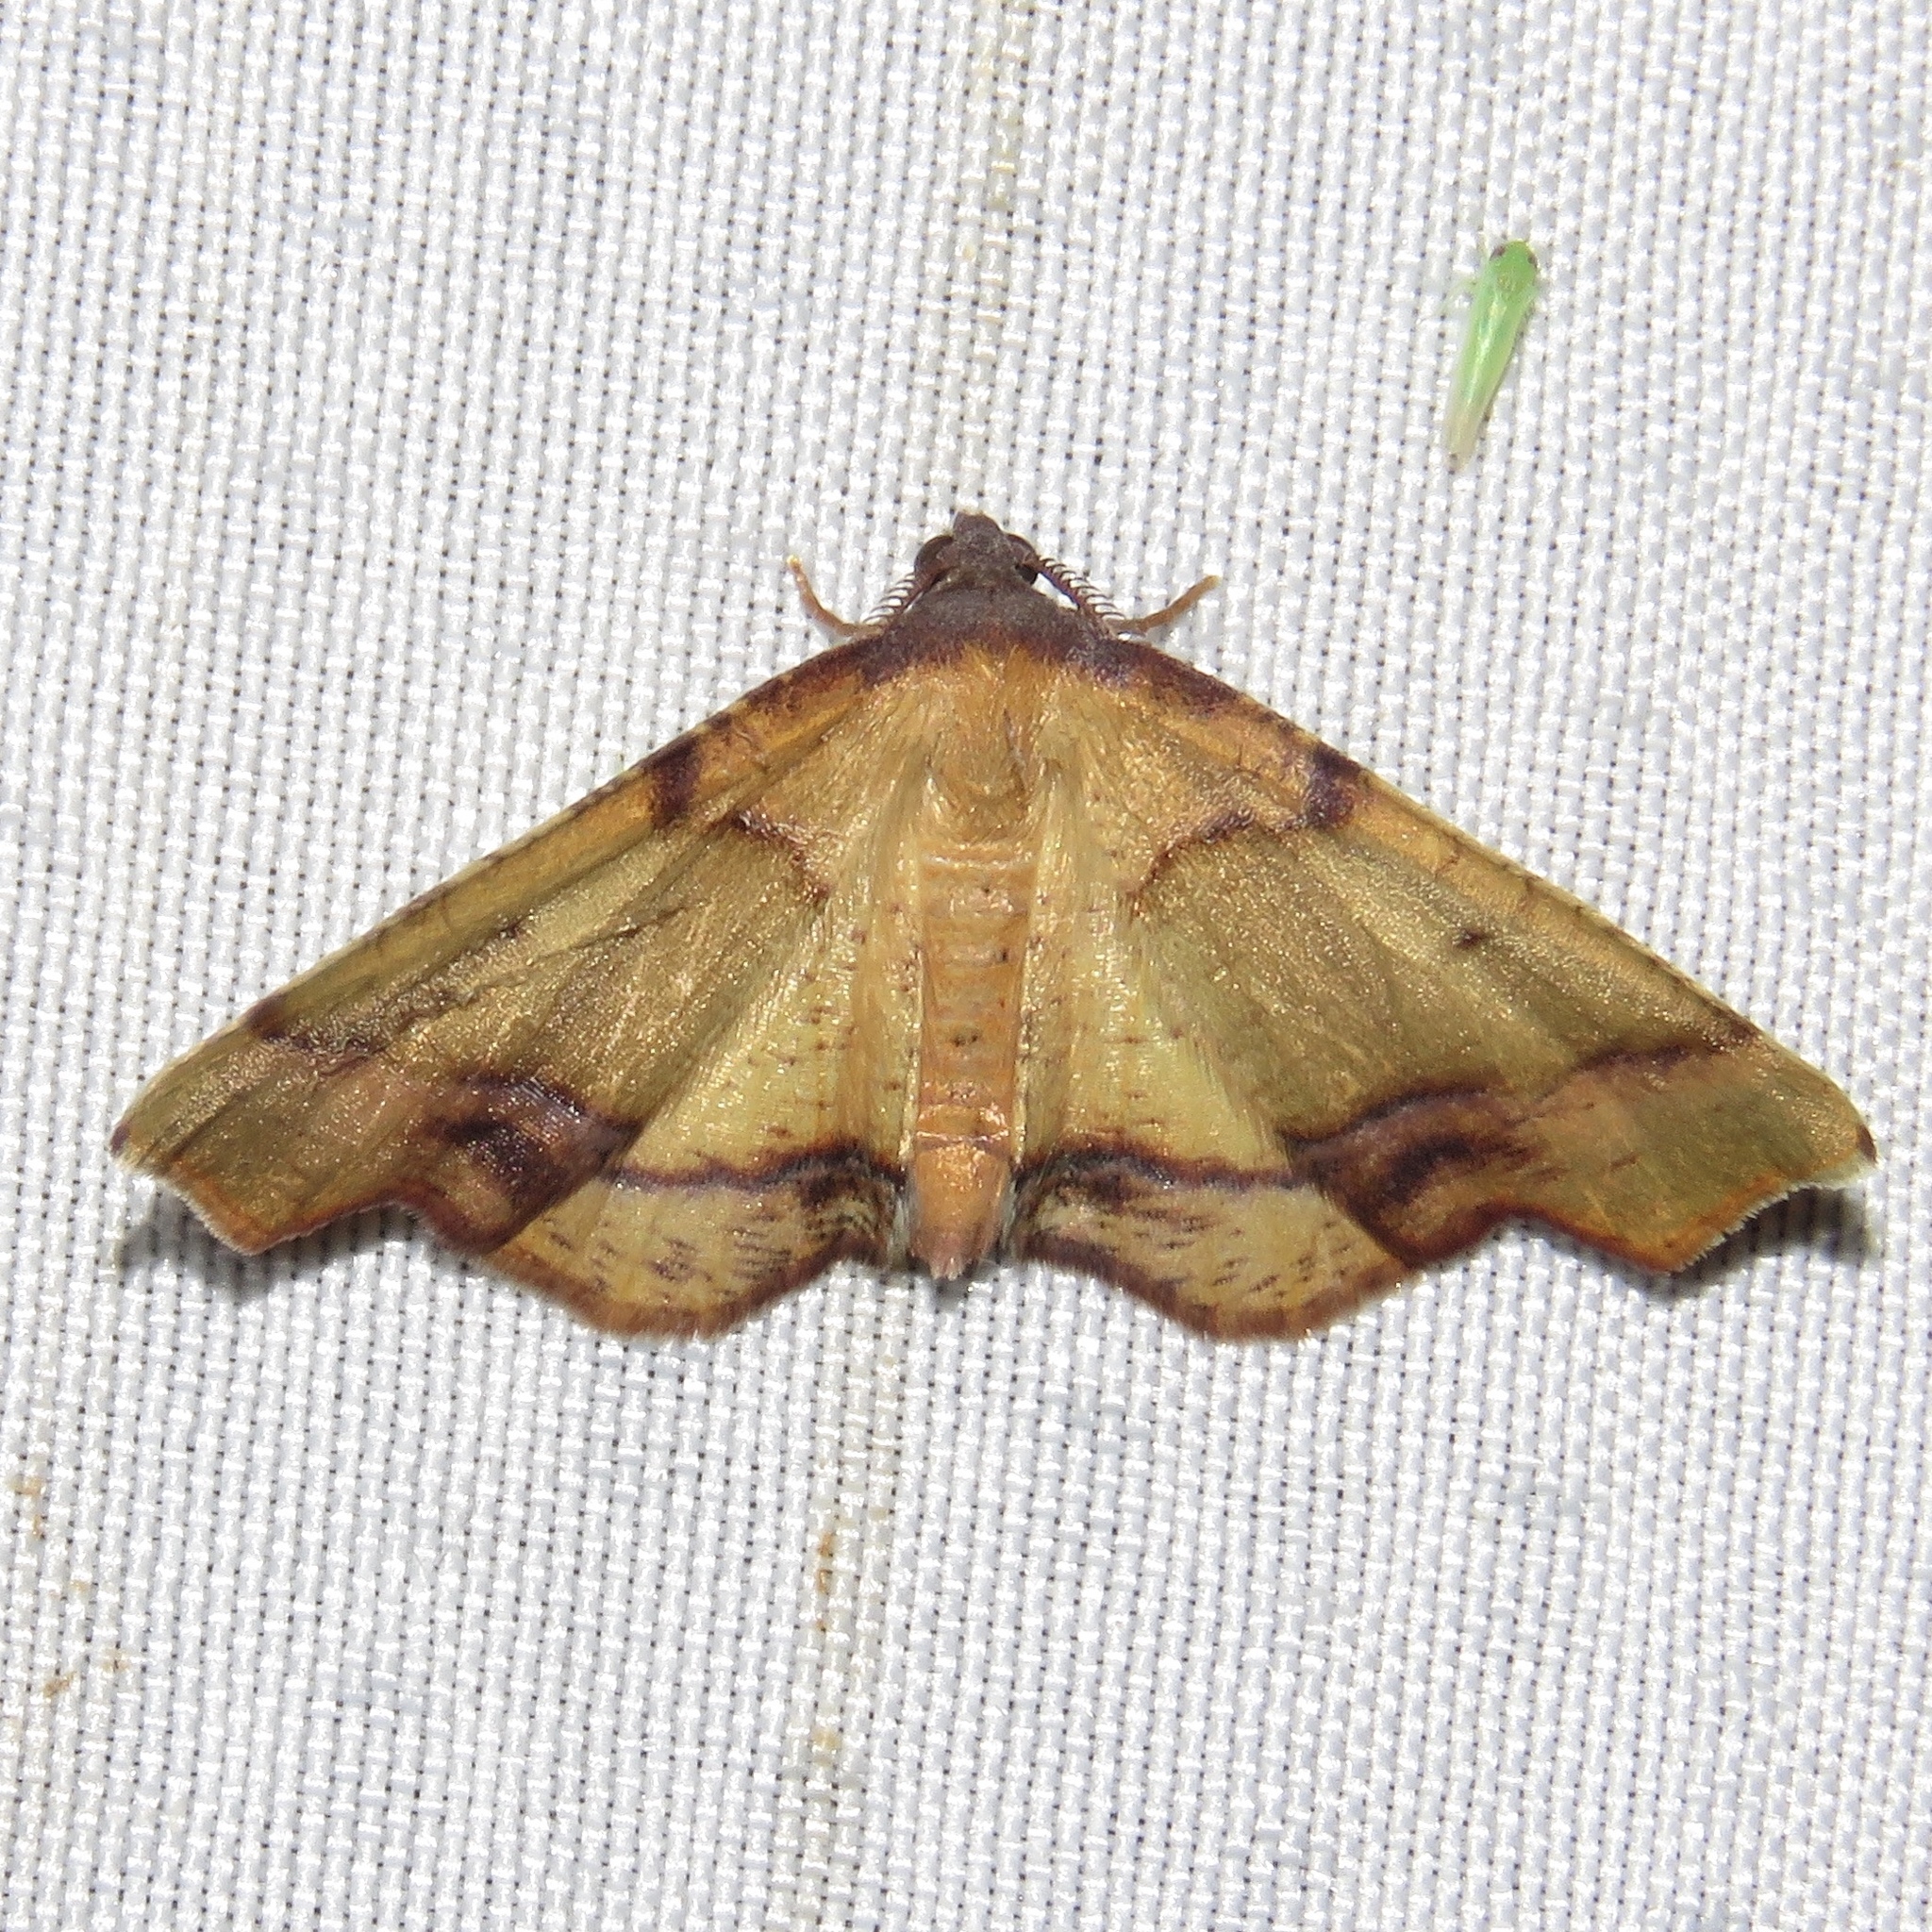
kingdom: Animalia
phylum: Arthropoda
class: Insecta
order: Lepidoptera
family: Geometridae
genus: Plagodis
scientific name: Plagodis phlogosaria
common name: Straight-lined plagodis
